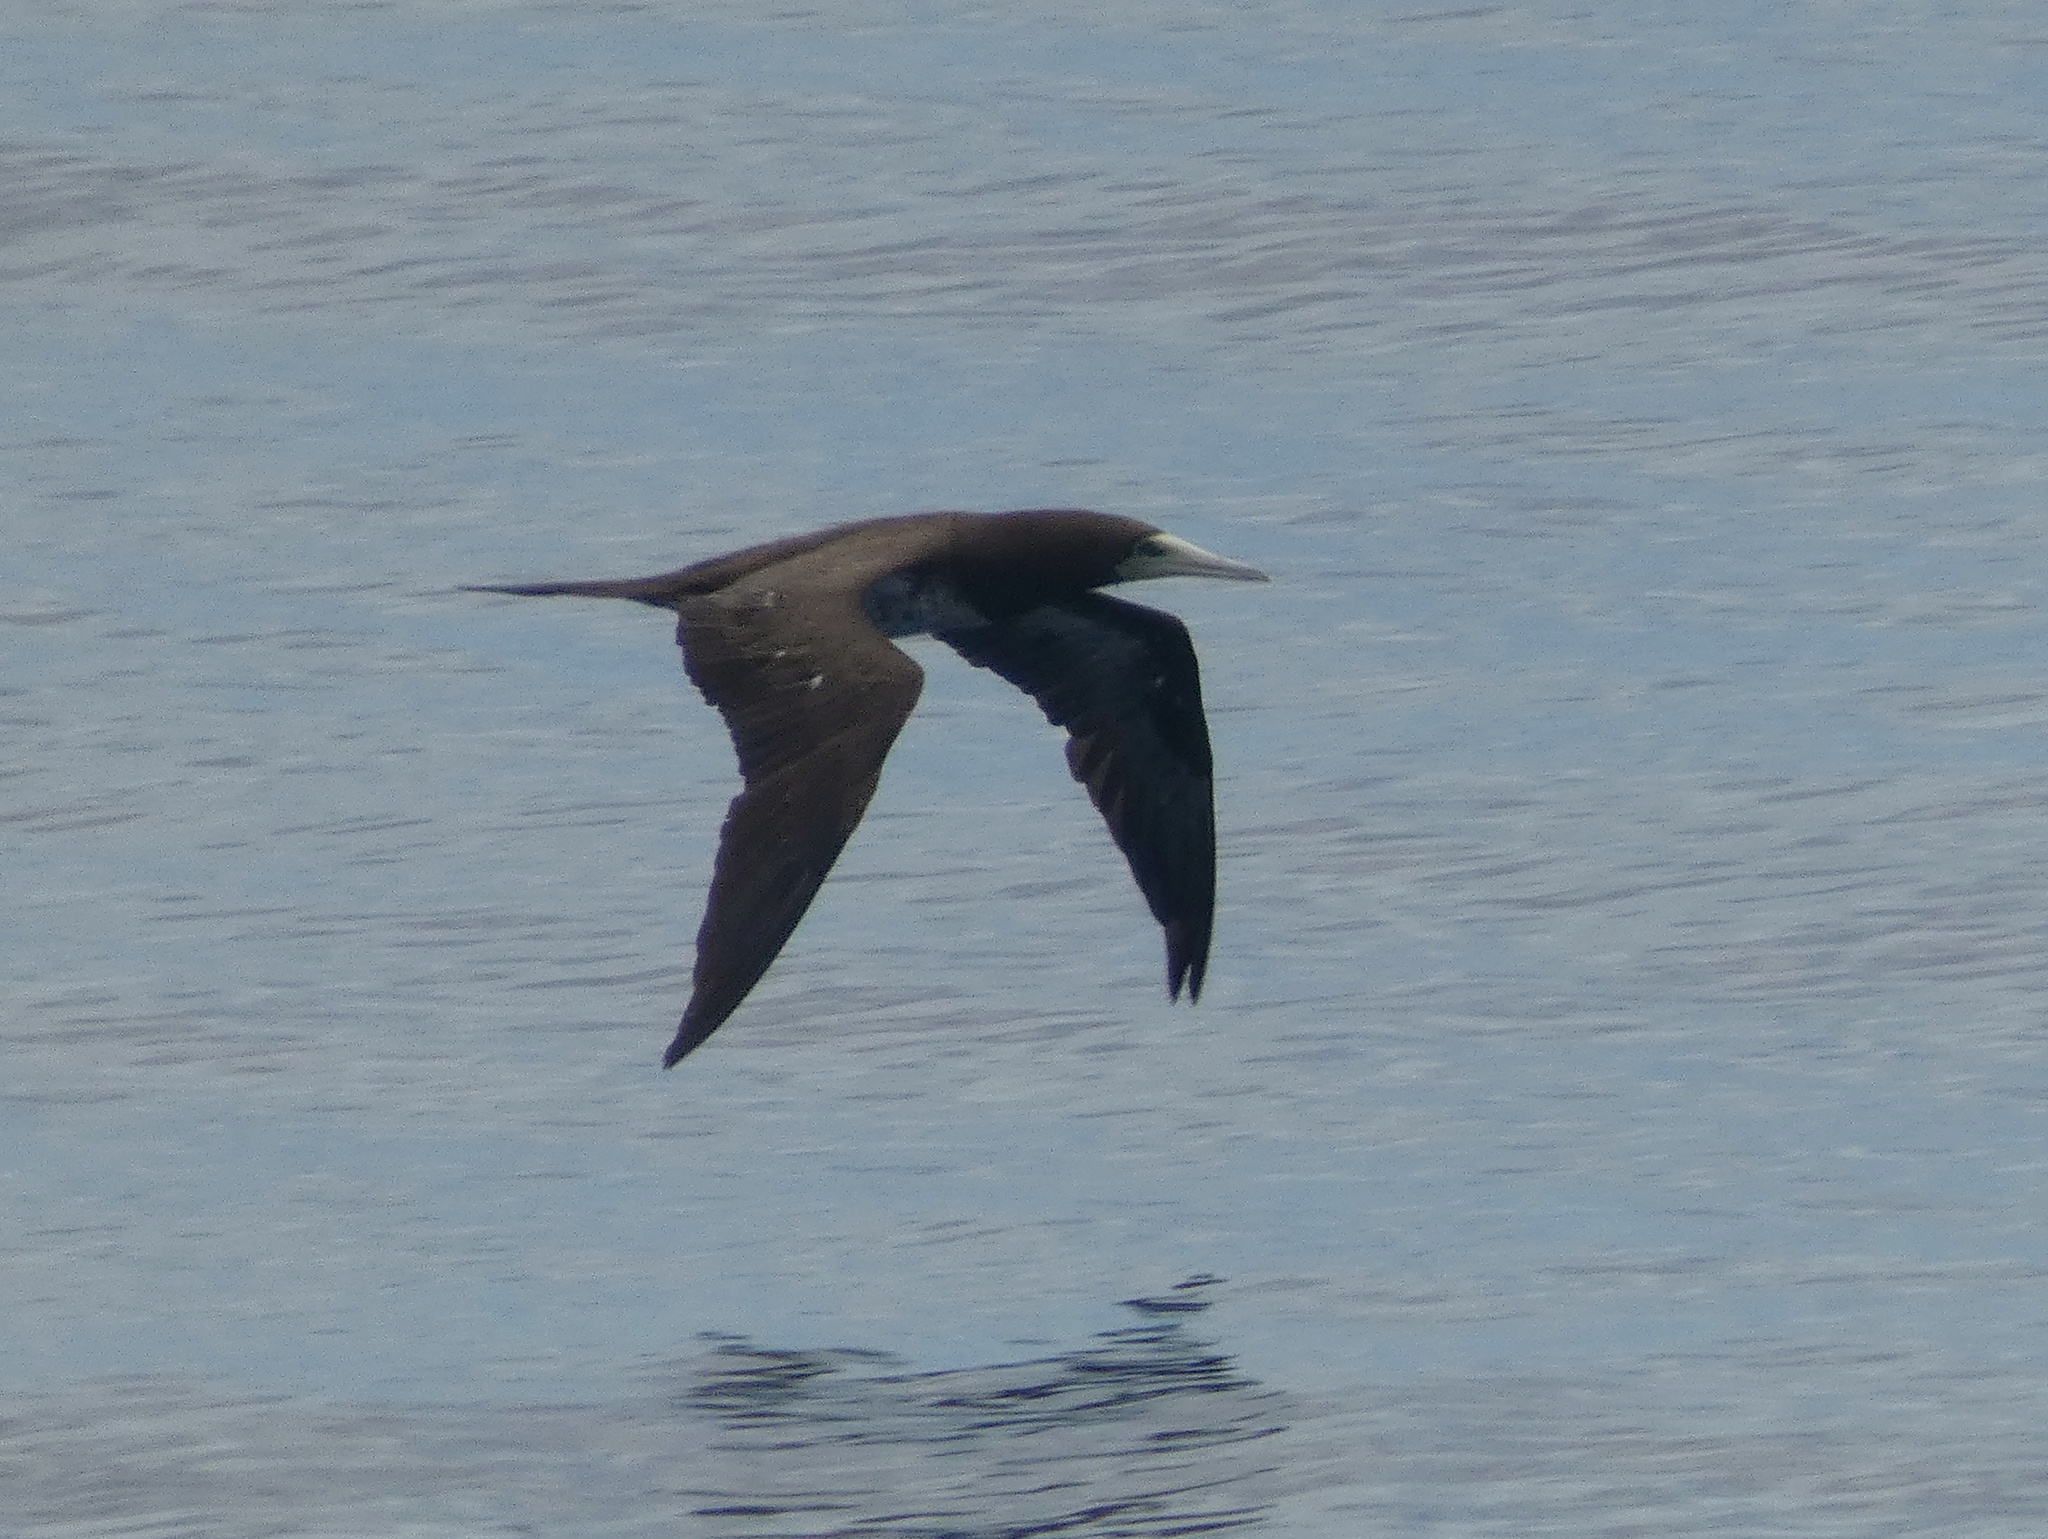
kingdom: Animalia
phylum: Chordata
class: Aves
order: Suliformes
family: Sulidae
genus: Sula
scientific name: Sula leucogaster
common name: Brown booby
